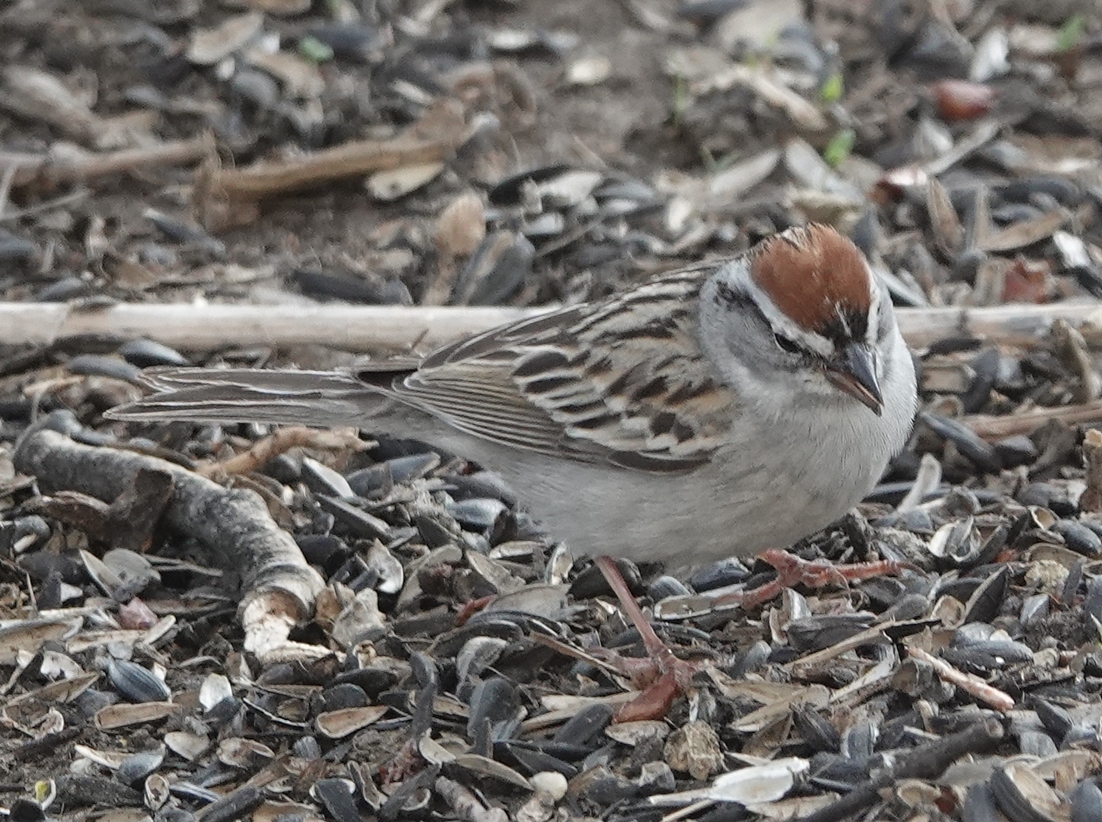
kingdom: Animalia
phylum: Chordata
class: Aves
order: Passeriformes
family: Passerellidae
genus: Spizella
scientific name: Spizella passerina
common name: Chipping sparrow
